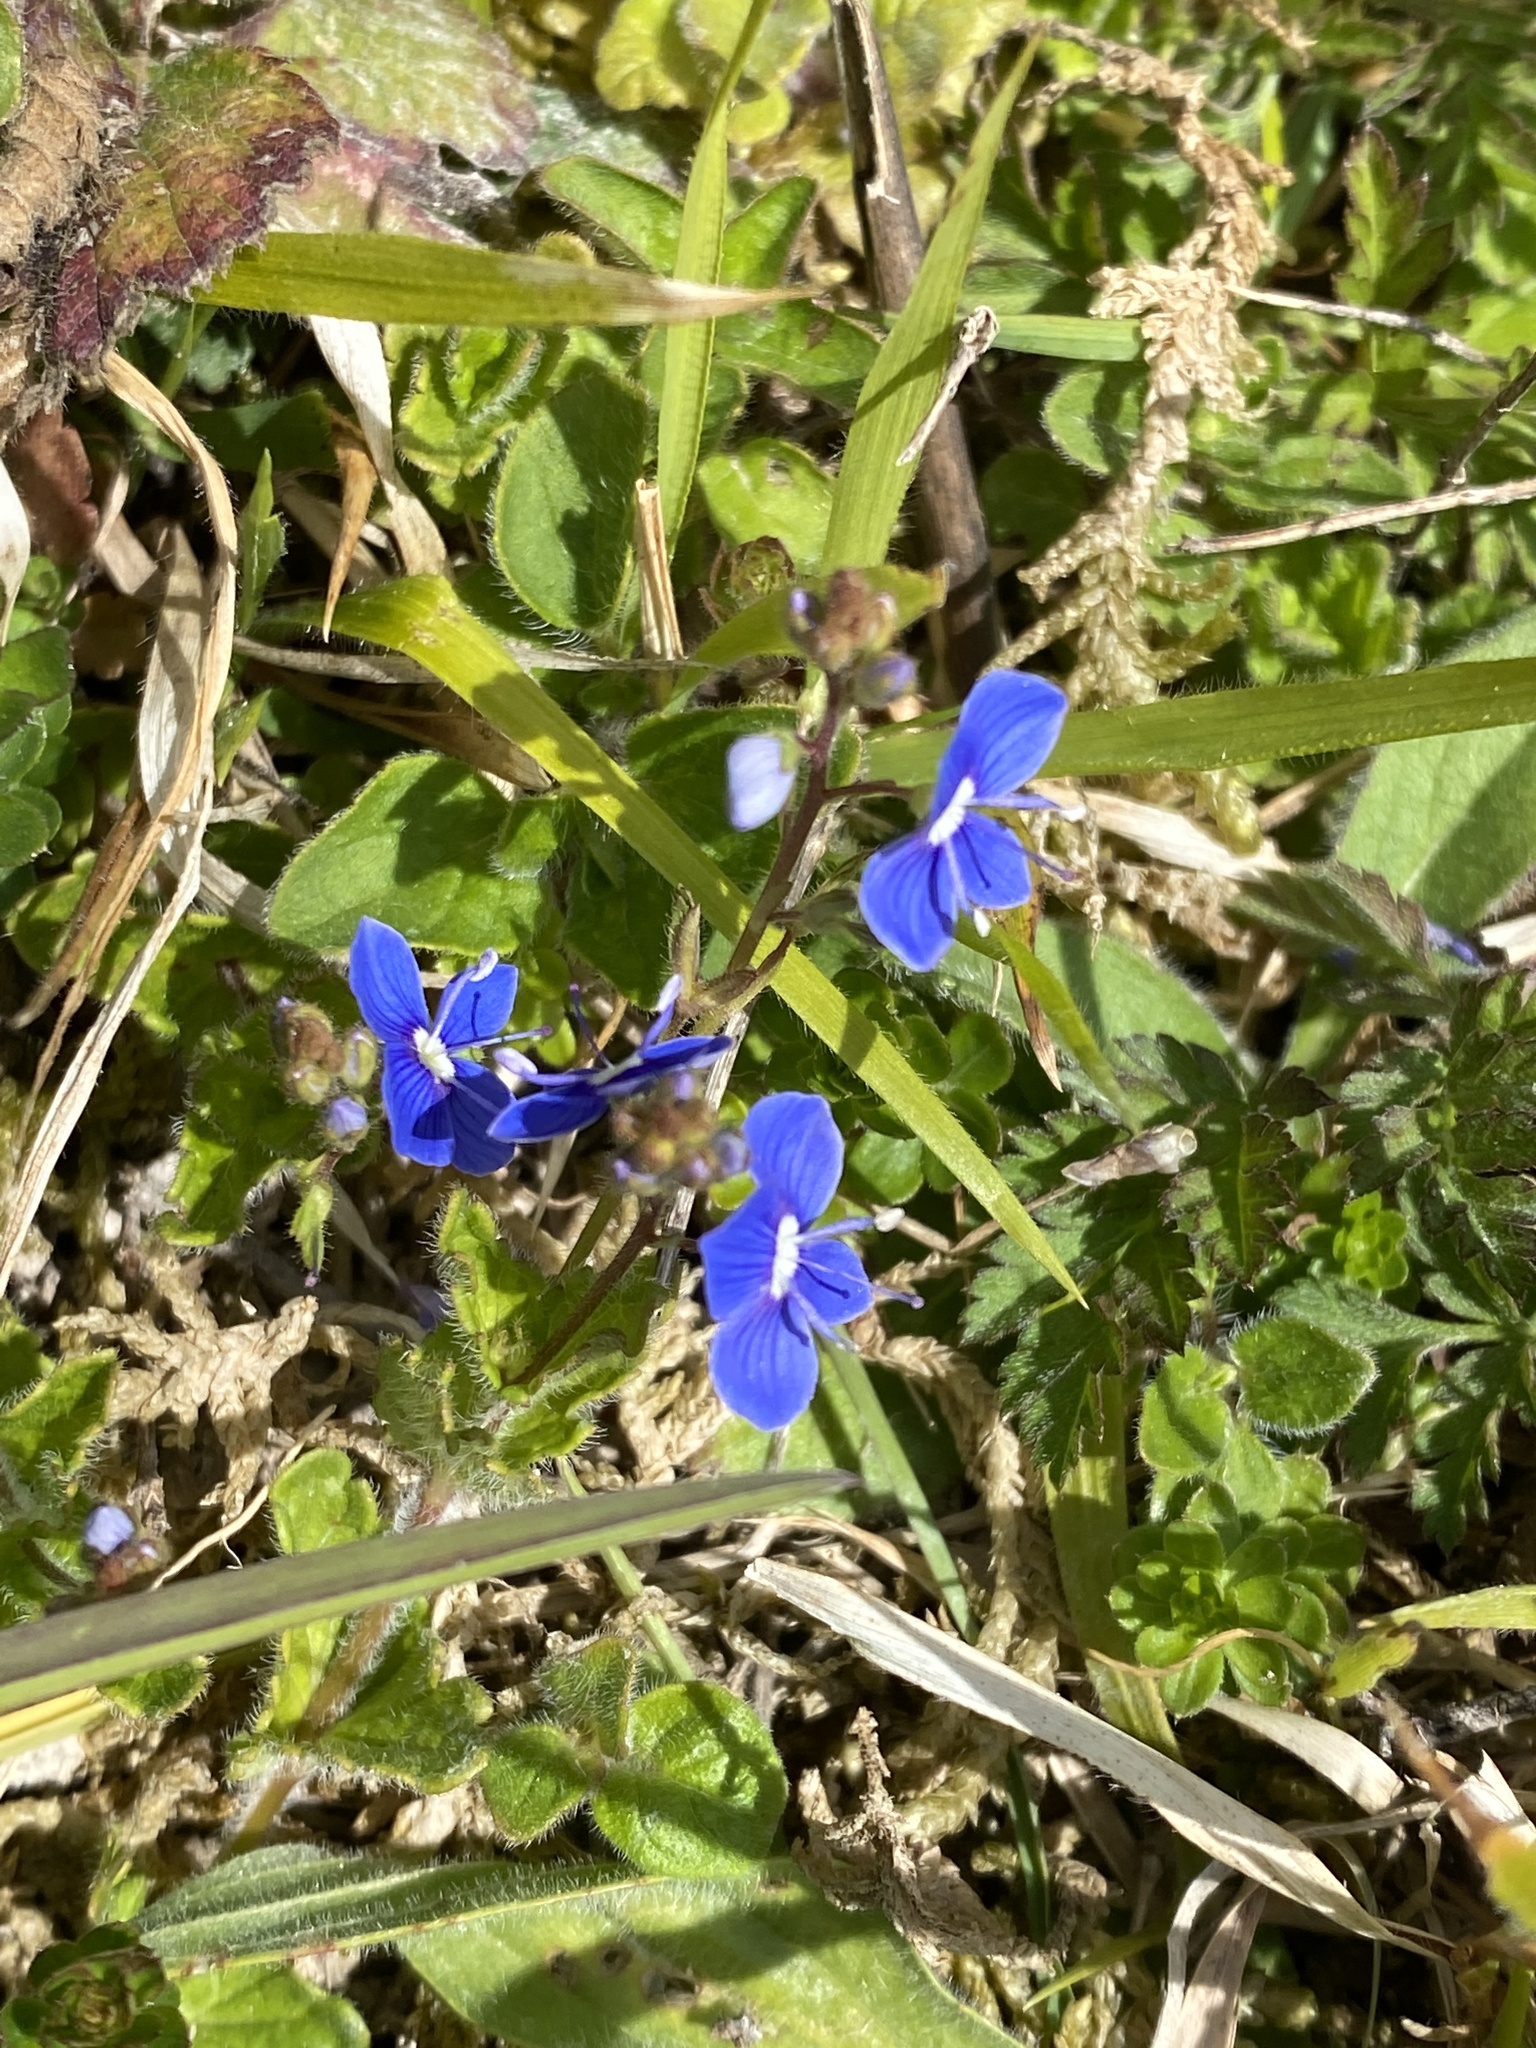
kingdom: Plantae
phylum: Tracheophyta
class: Magnoliopsida
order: Lamiales
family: Plantaginaceae
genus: Veronica
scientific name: Veronica chamaedrys
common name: Germander speedwell
